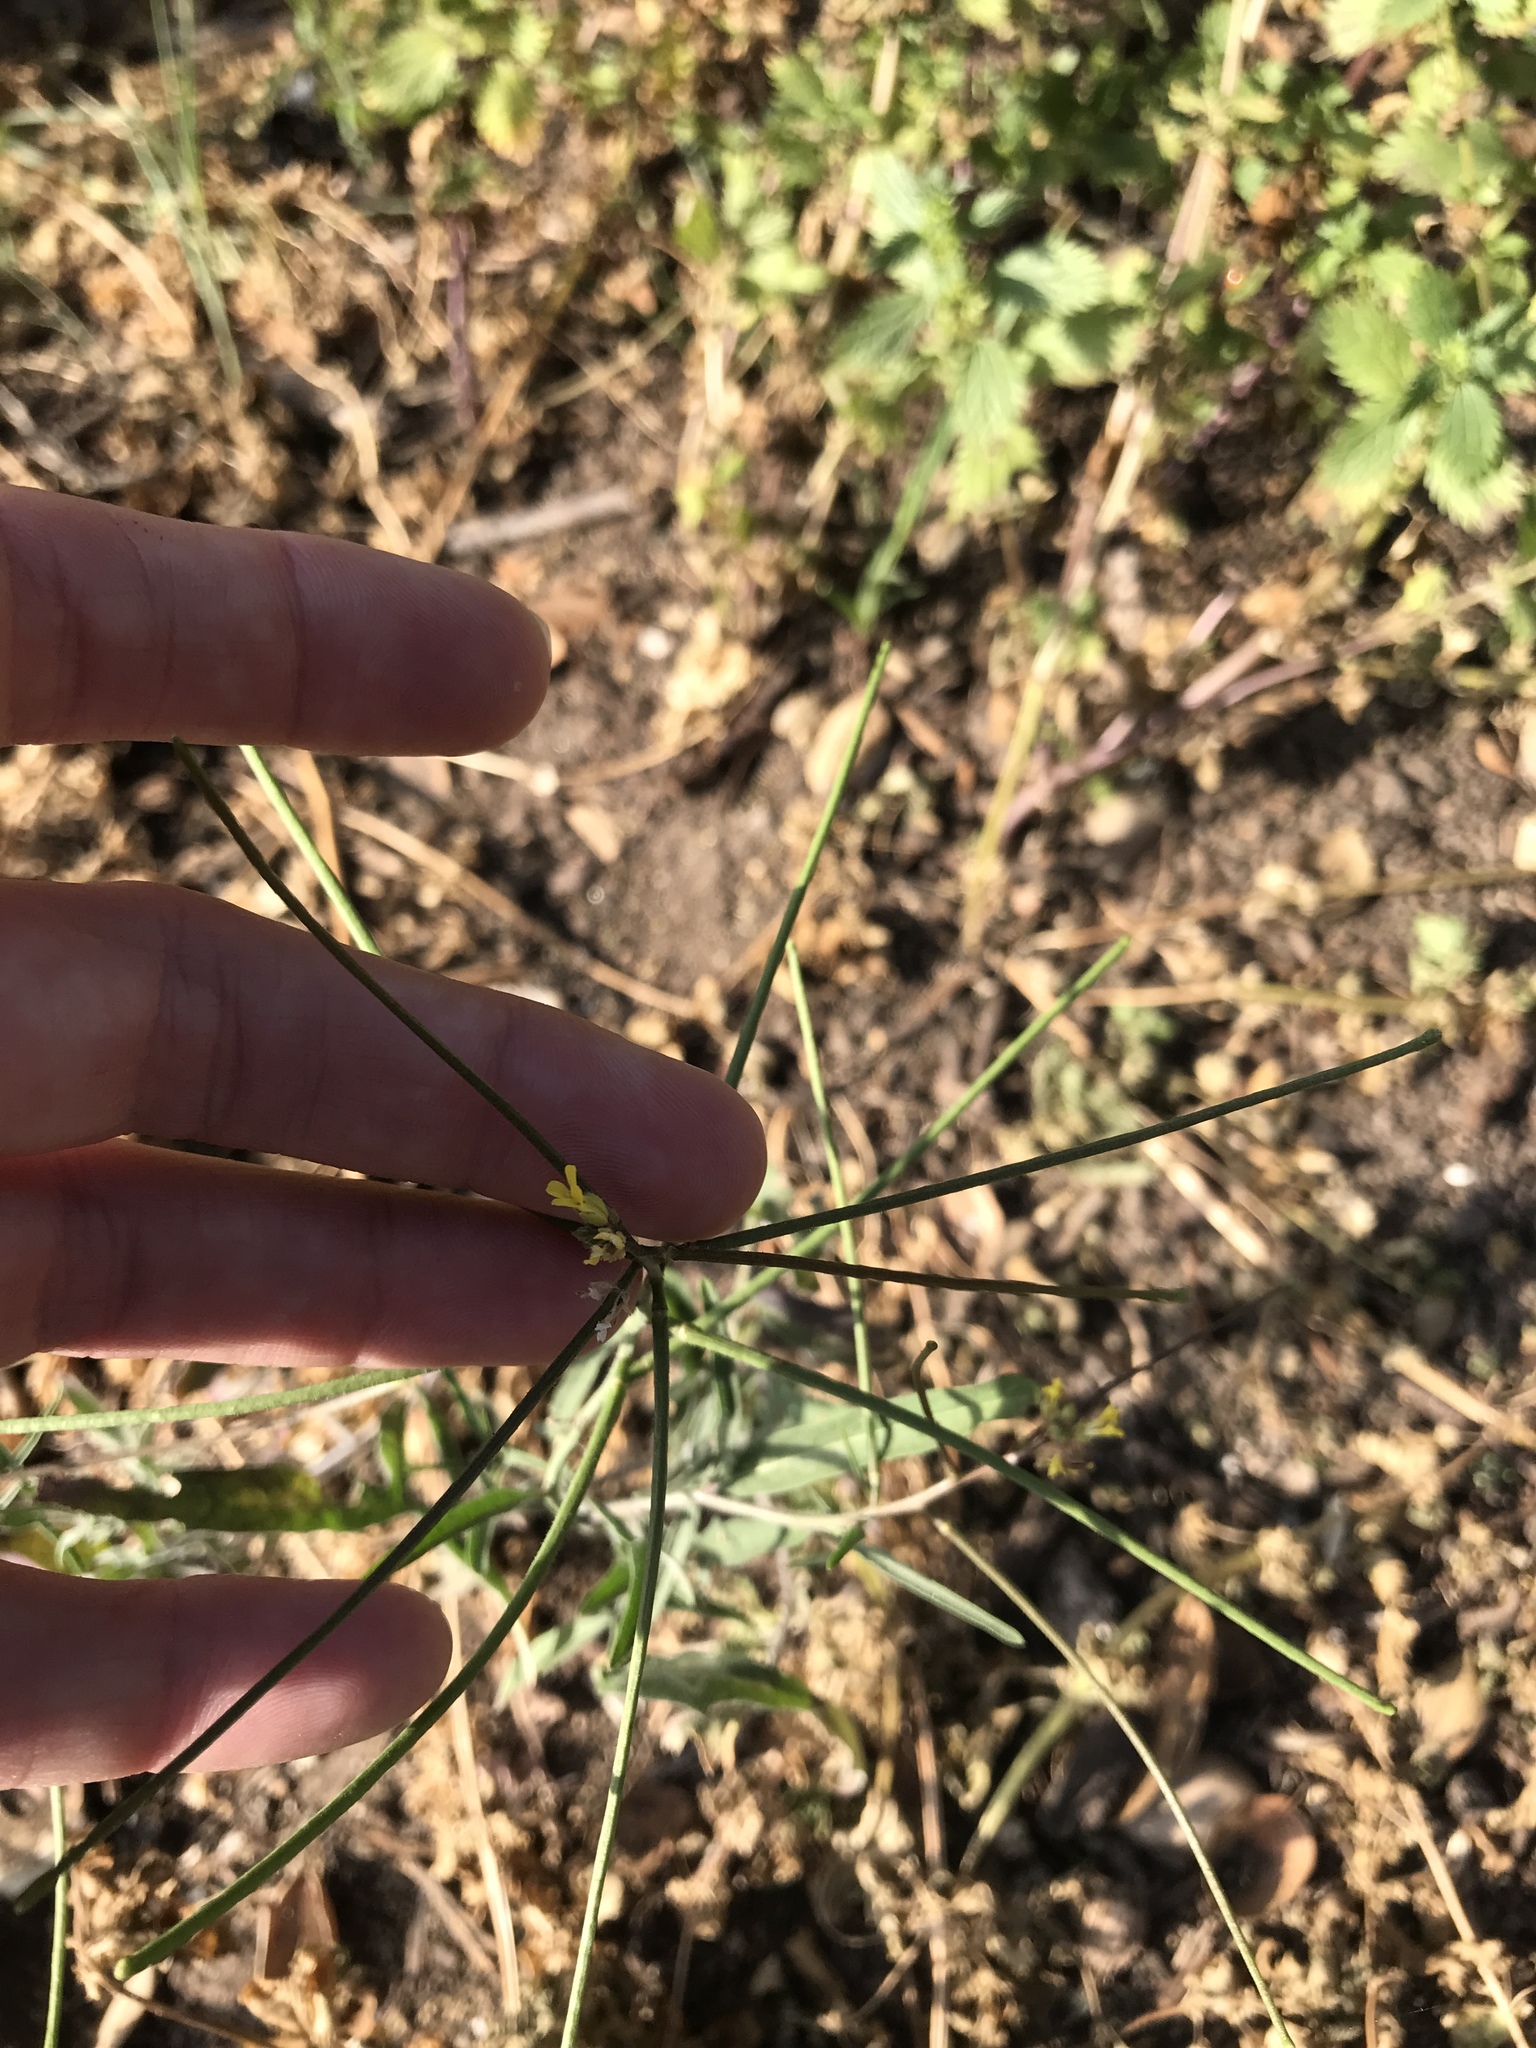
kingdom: Plantae
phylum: Tracheophyta
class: Magnoliopsida
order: Brassicales
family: Brassicaceae
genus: Sisymbrium
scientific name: Sisymbrium orientale
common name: Eastern rocket
